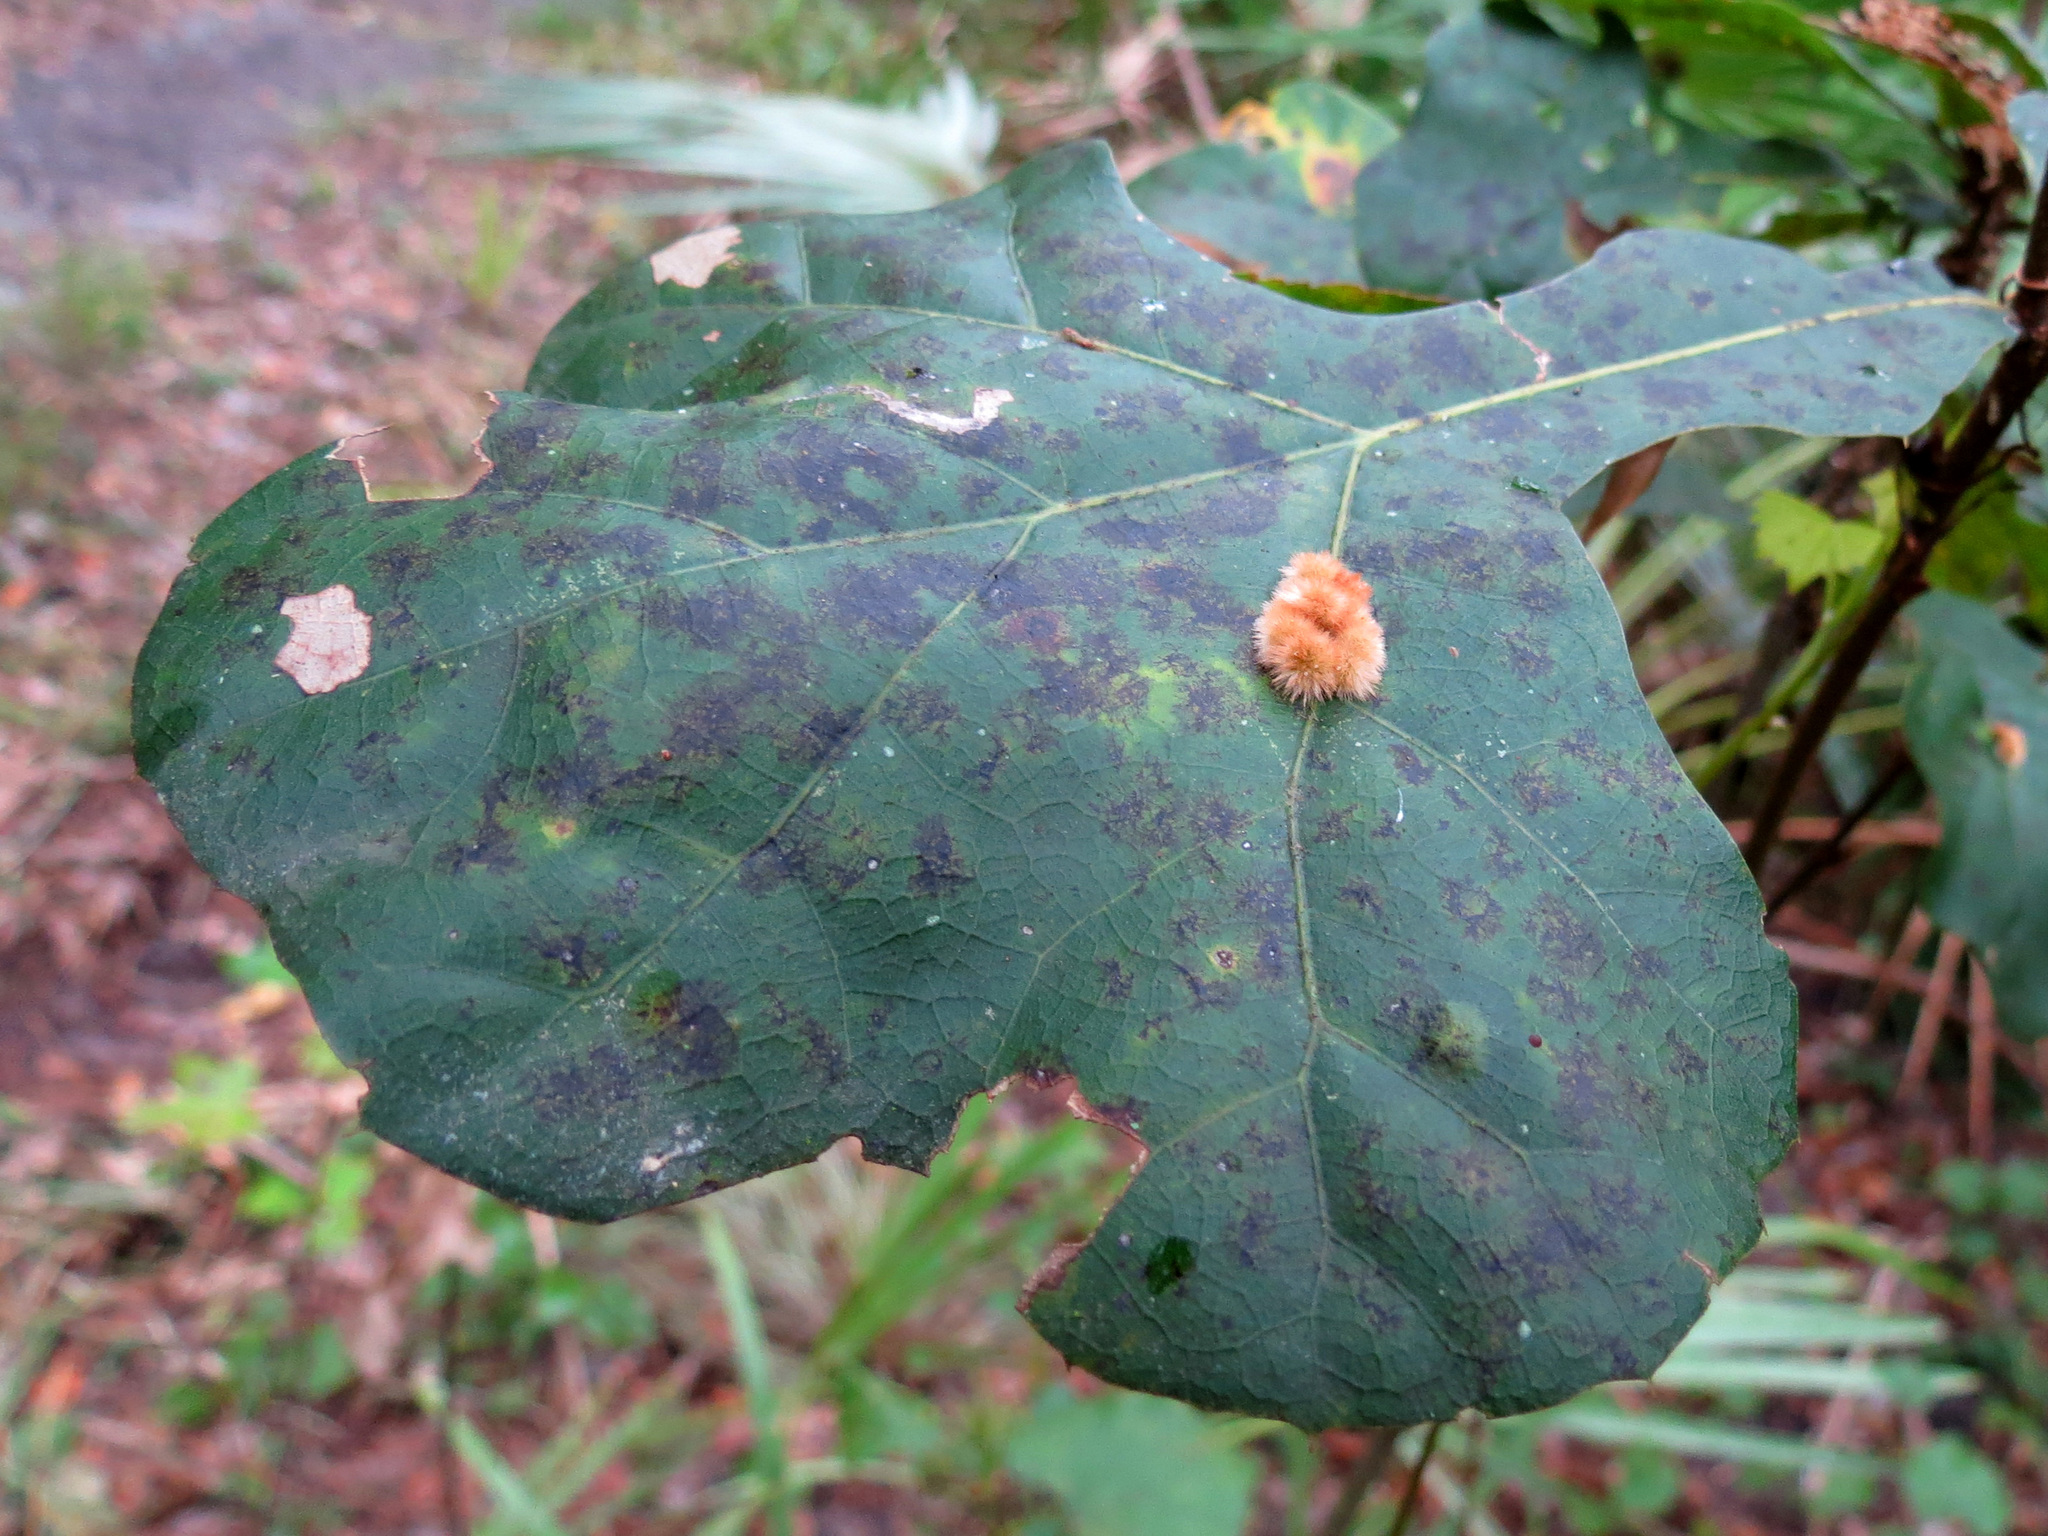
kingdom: Animalia
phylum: Arthropoda
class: Insecta
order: Hymenoptera
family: Cynipidae
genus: Callirhytis
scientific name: Callirhytis
